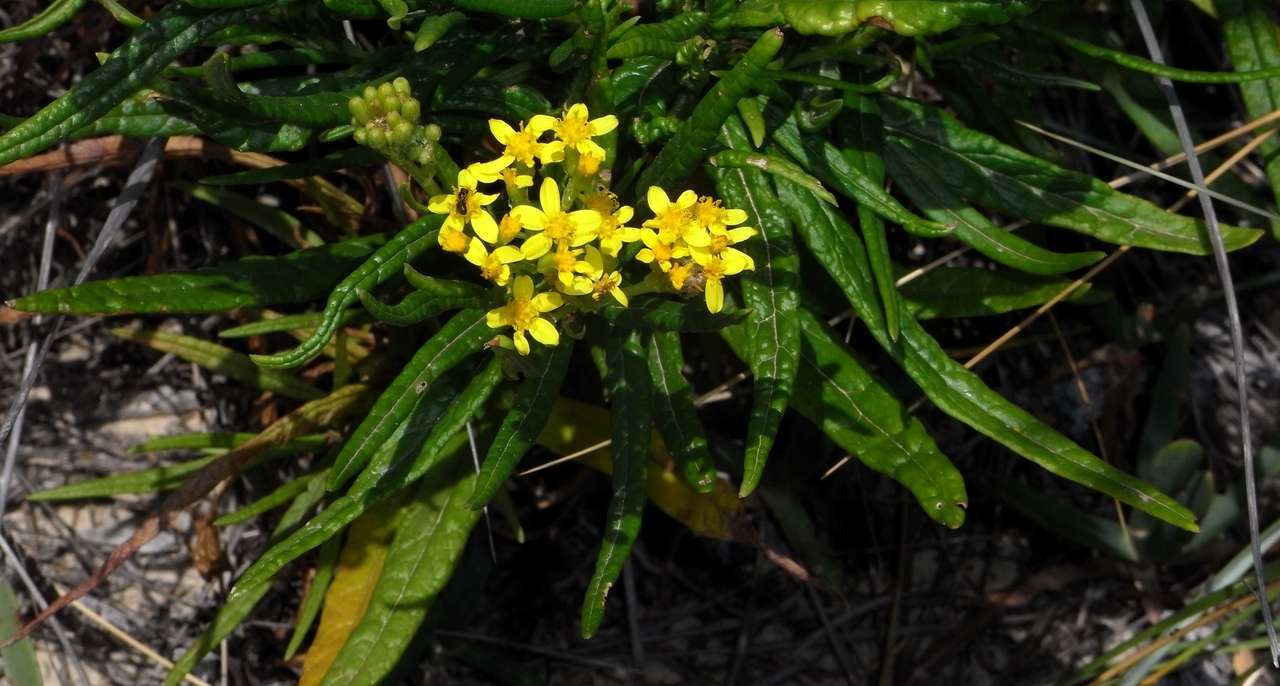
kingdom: Plantae
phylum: Tracheophyta
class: Magnoliopsida
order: Asterales
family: Asteraceae
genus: Senecio
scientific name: Senecio linearifolius
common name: Fireweed groundsel
